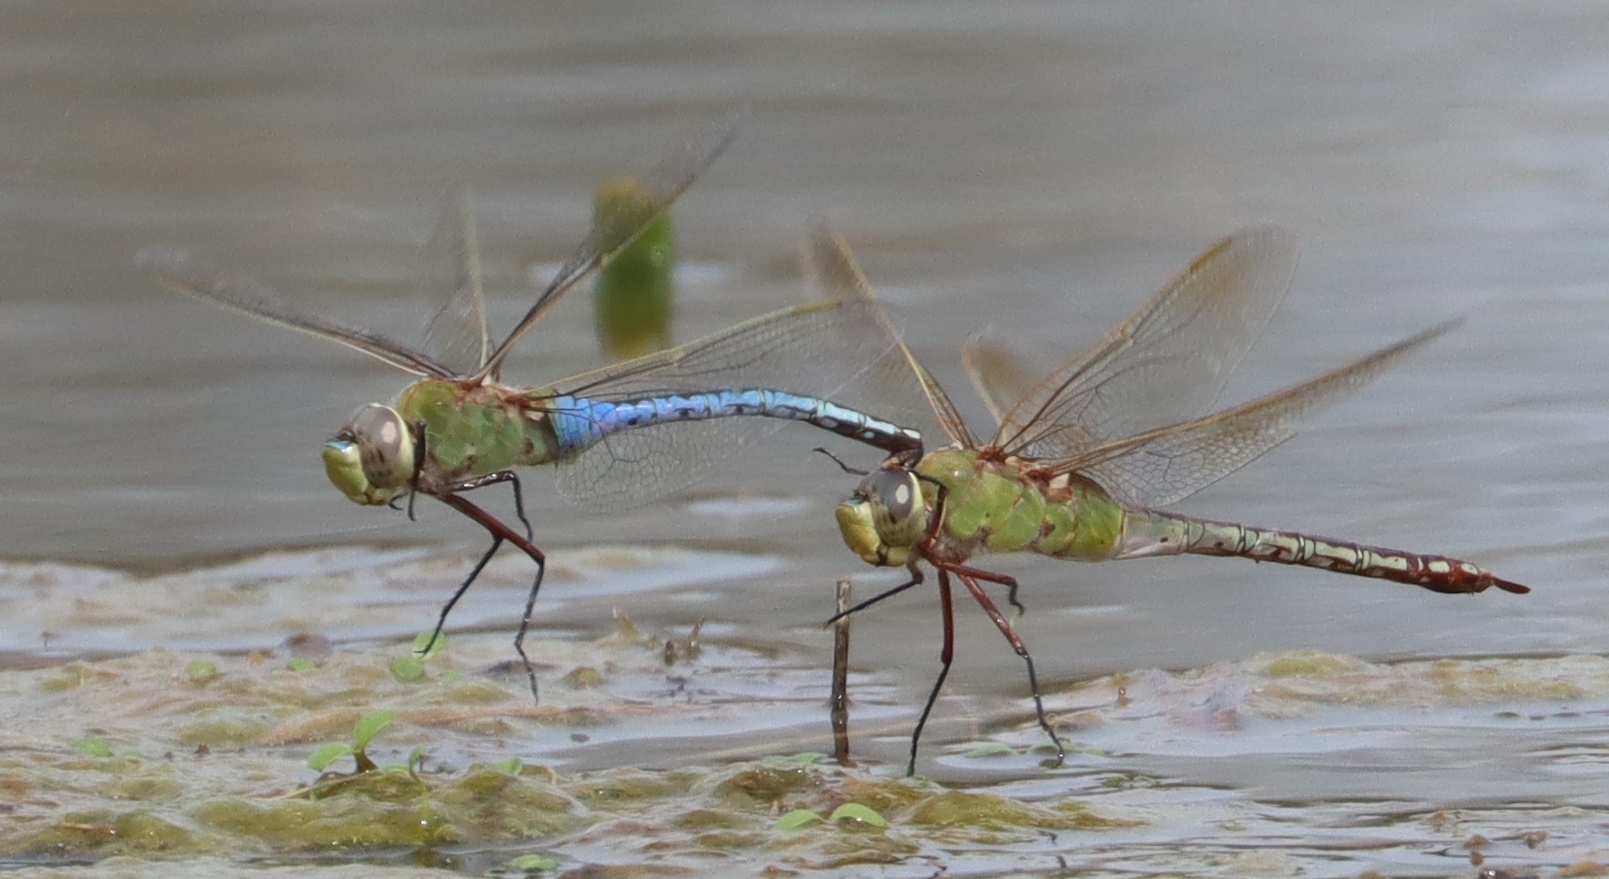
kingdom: Animalia
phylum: Arthropoda
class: Insecta
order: Odonata
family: Aeshnidae
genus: Anax
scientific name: Anax junius
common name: Common green darner
